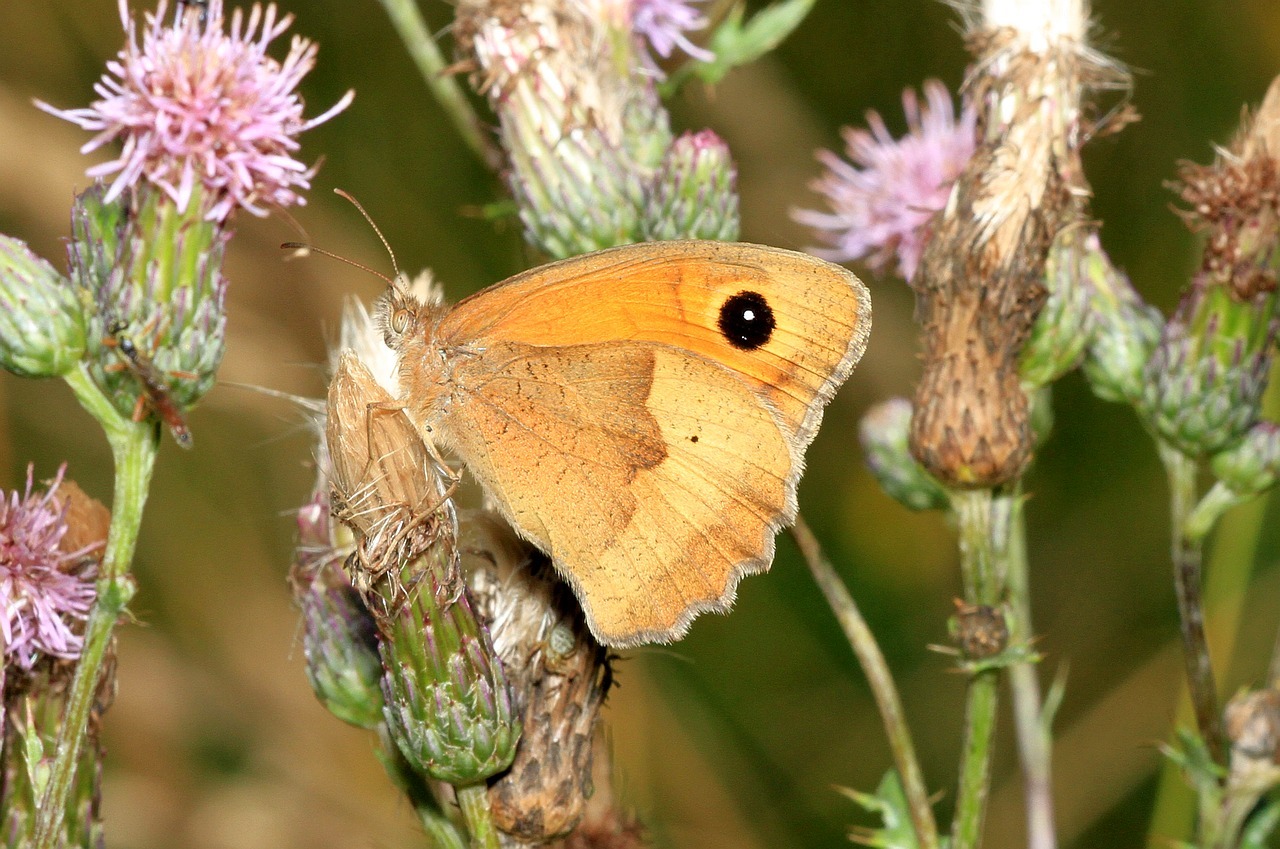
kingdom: Animalia
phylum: Arthropoda
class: Insecta
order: Lepidoptera
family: Nymphalidae
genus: Maniola
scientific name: Maniola jurtina
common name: Meadow brown
